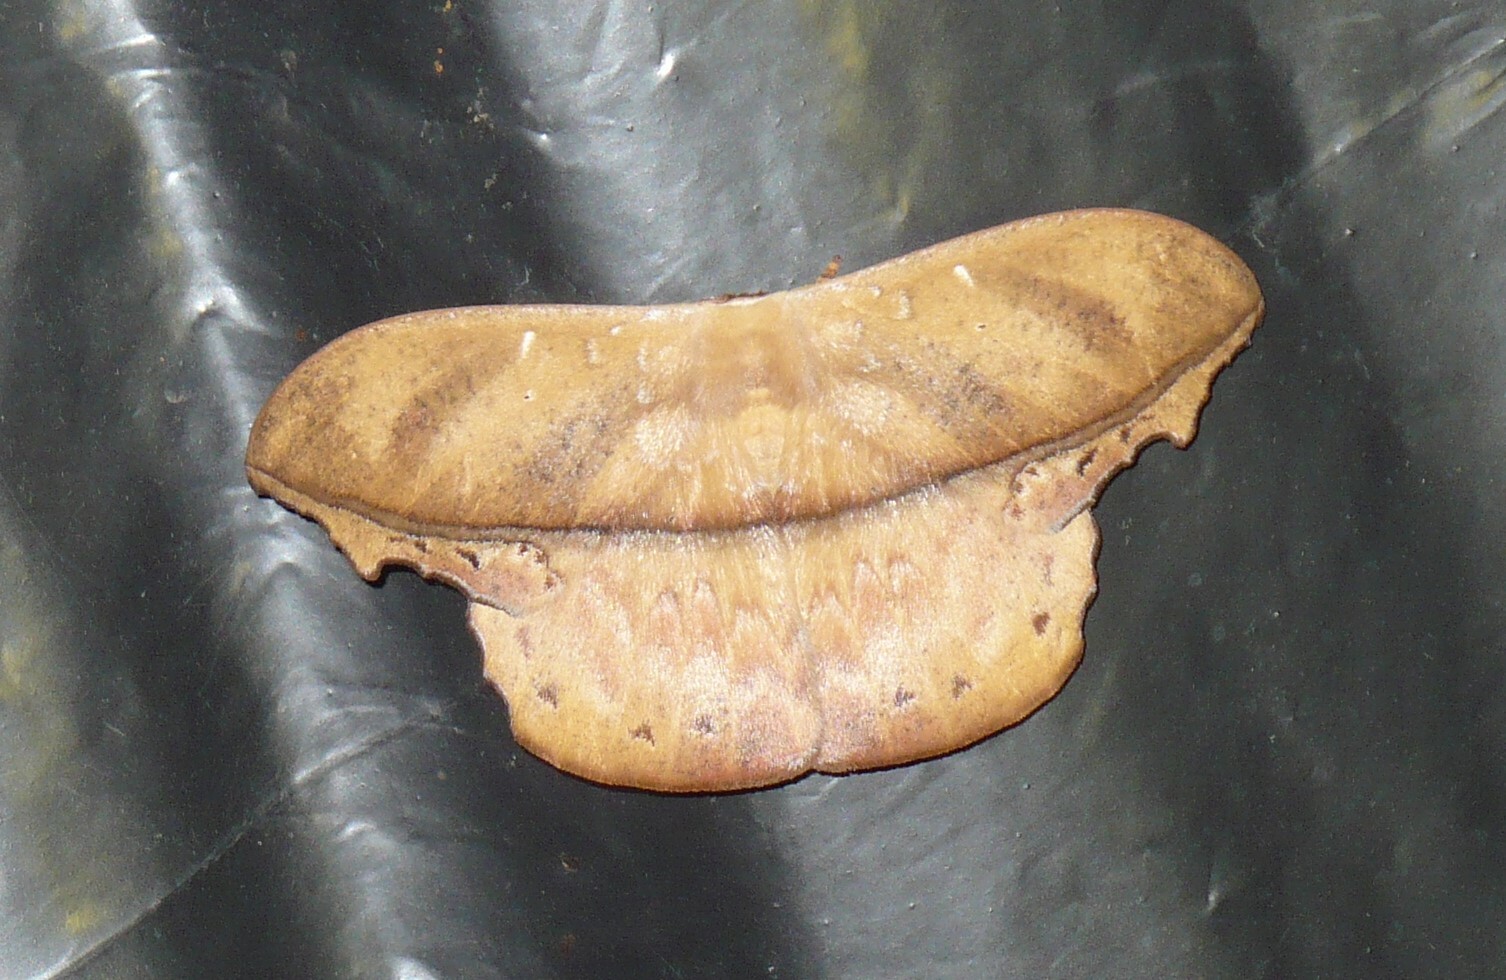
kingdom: Animalia
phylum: Arthropoda
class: Insecta
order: Lepidoptera
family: Saturniidae
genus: Oxytenis
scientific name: Oxytenis naemia
